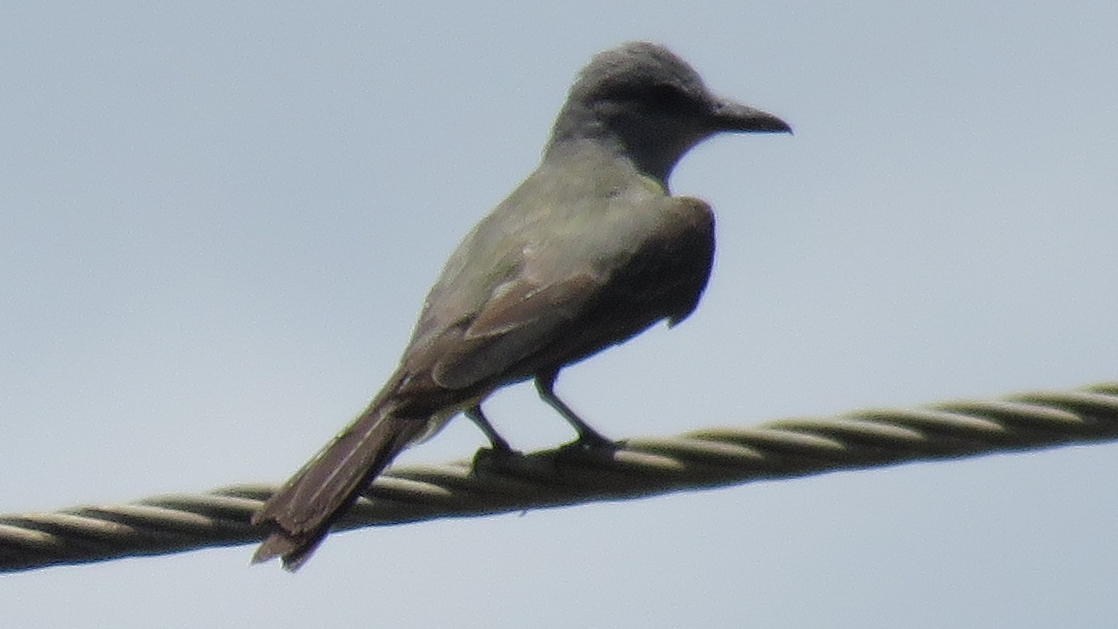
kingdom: Animalia
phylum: Chordata
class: Aves
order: Passeriformes
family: Tyrannidae
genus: Tyrannus
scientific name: Tyrannus melancholicus
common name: Tropical kingbird
